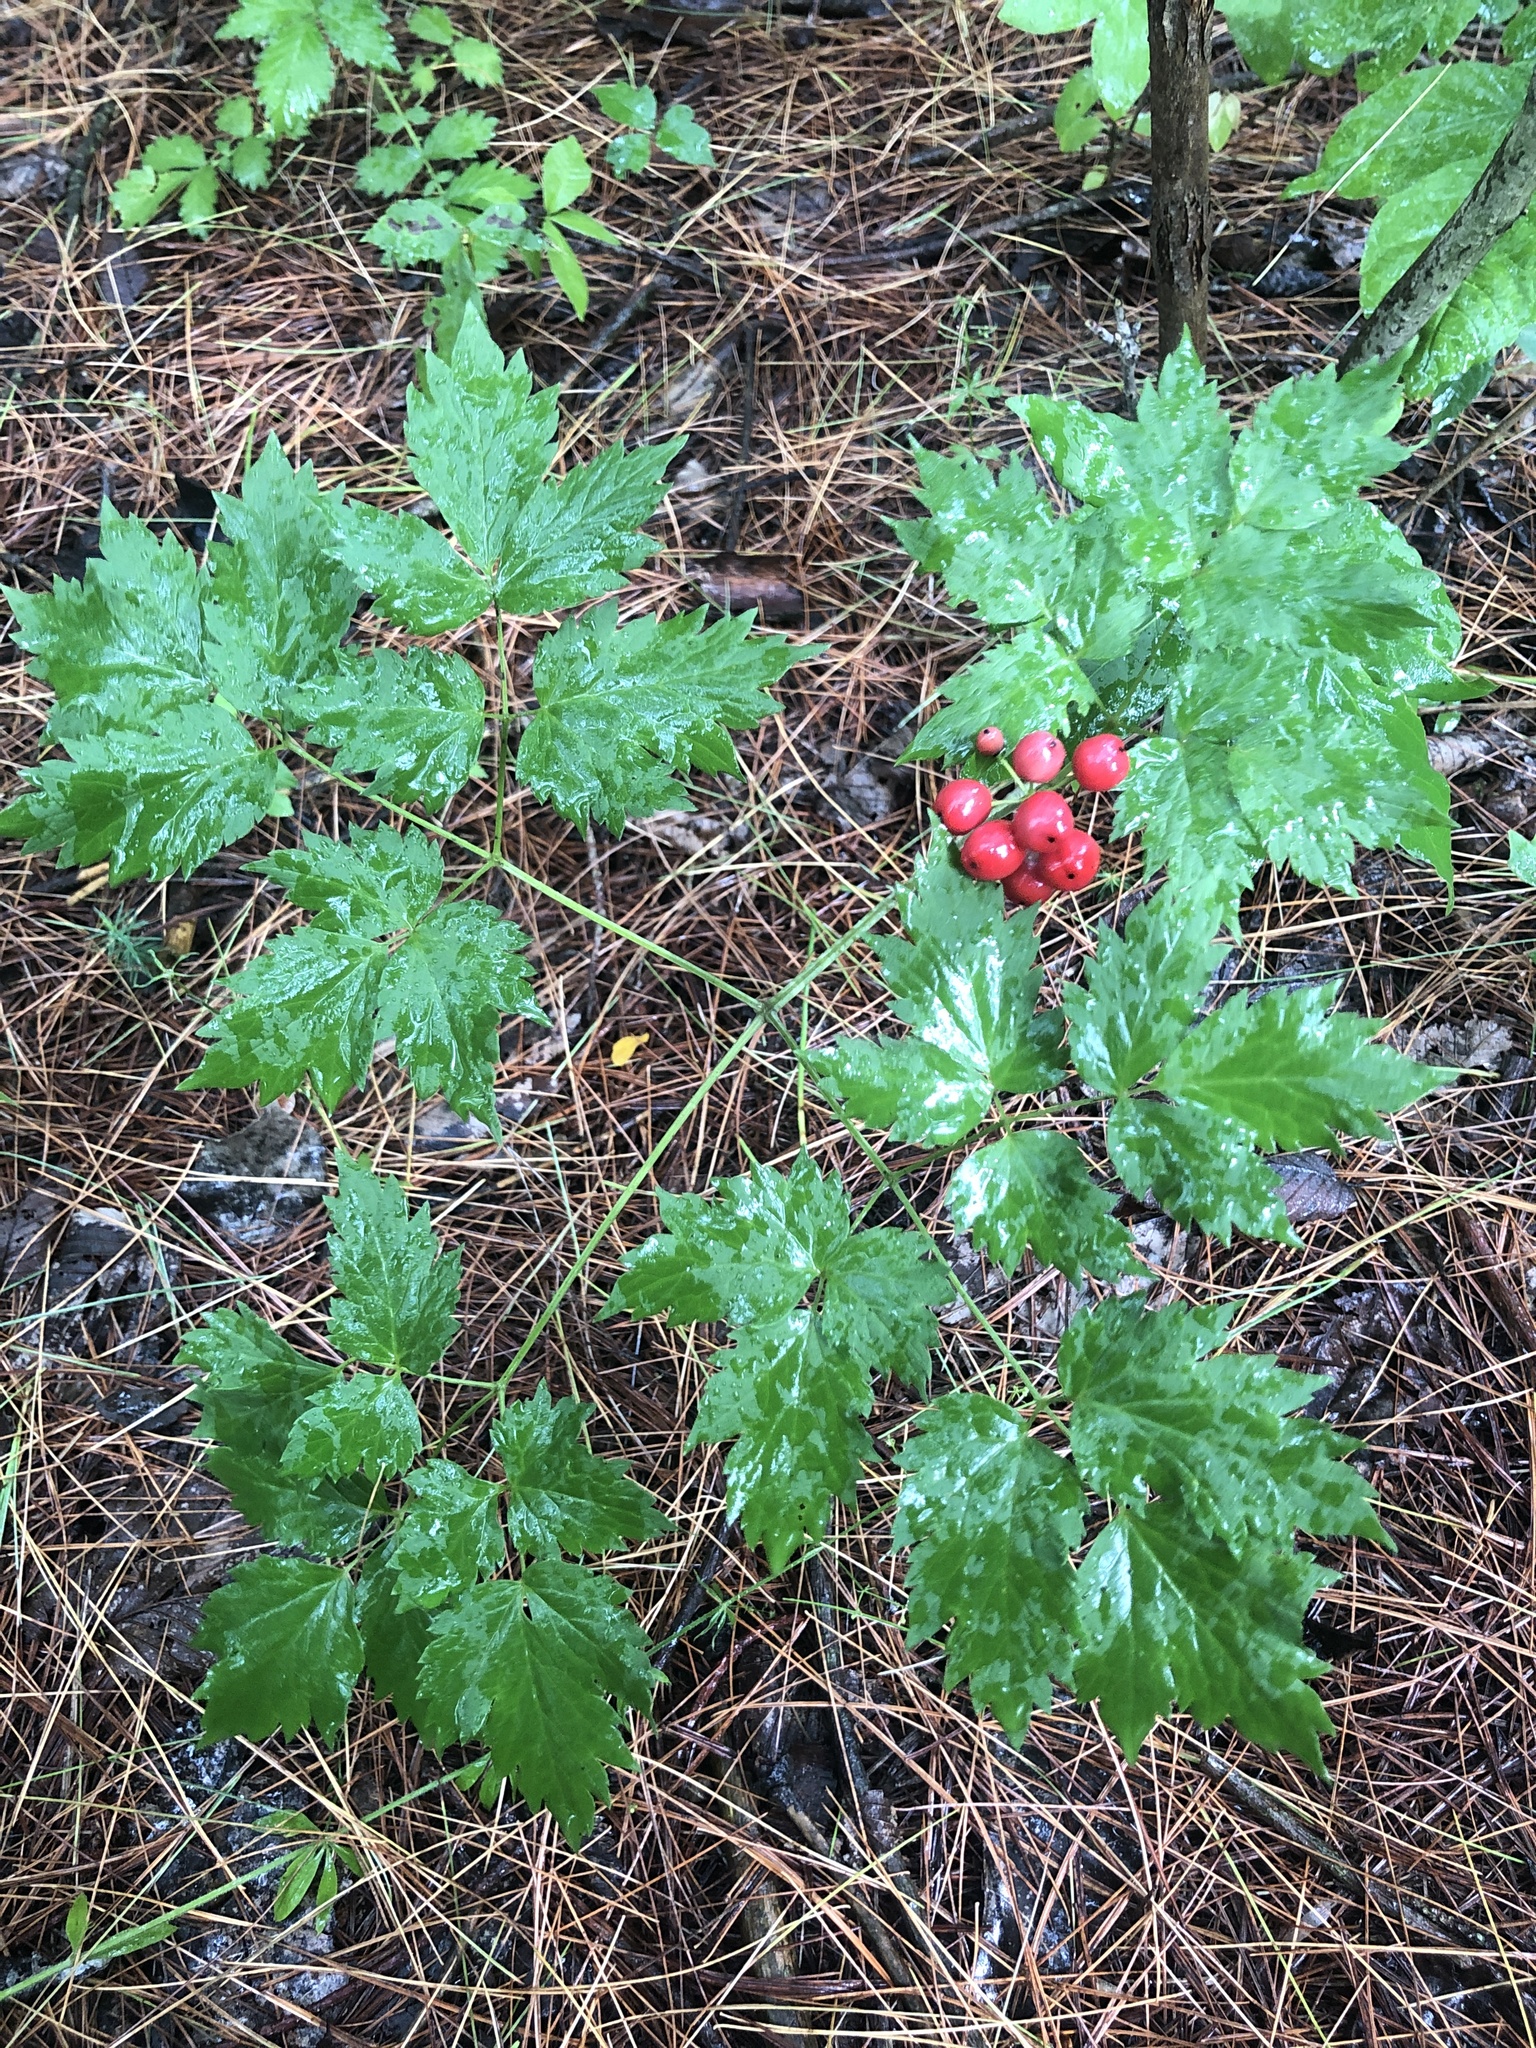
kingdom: Plantae
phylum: Tracheophyta
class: Magnoliopsida
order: Ranunculales
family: Ranunculaceae
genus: Actaea
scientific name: Actaea rubra
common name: Red baneberry
